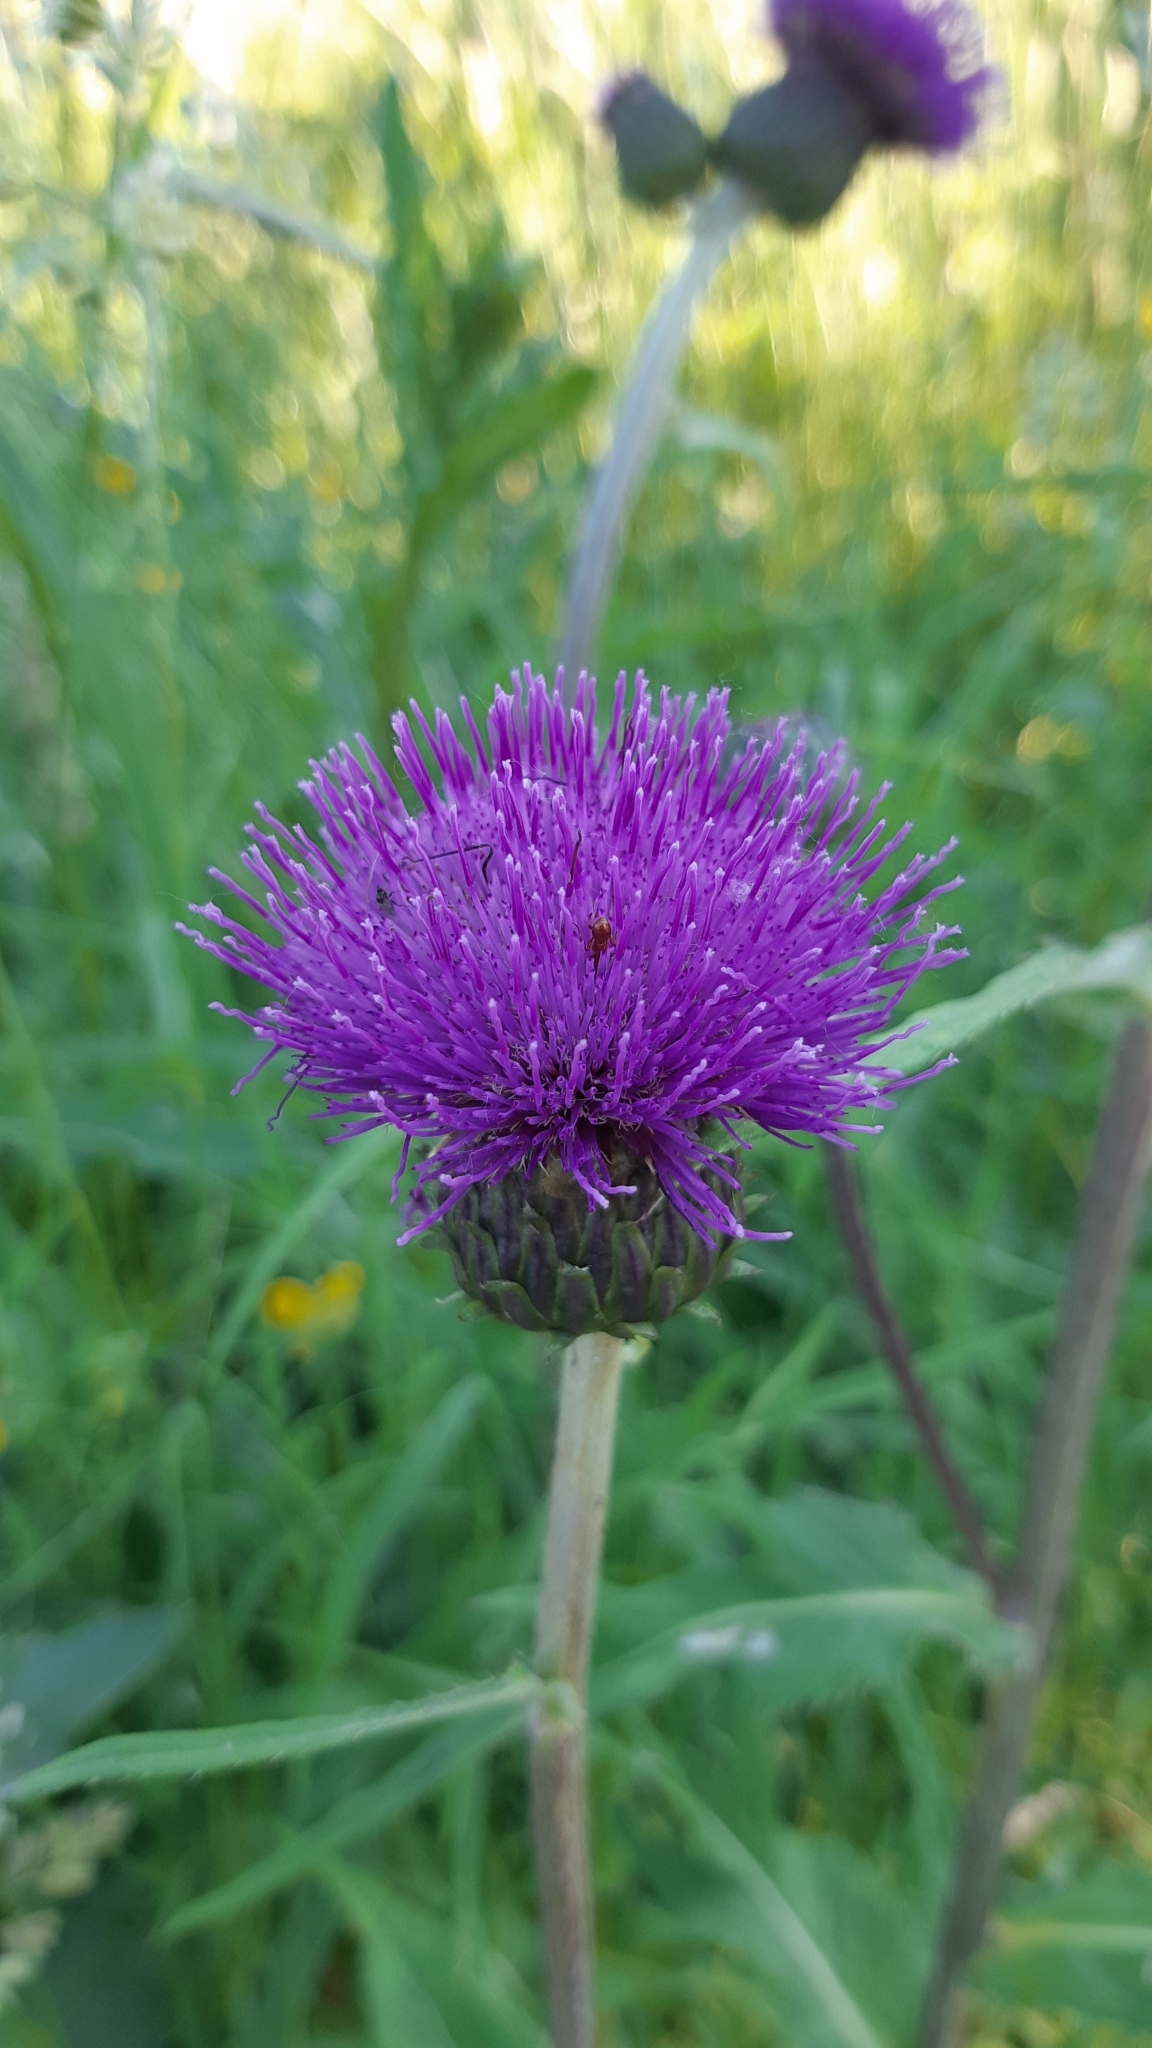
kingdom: Plantae
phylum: Tracheophyta
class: Magnoliopsida
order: Asterales
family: Asteraceae
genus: Cirsium
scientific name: Cirsium heterophyllum
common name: Melancholy thistle
